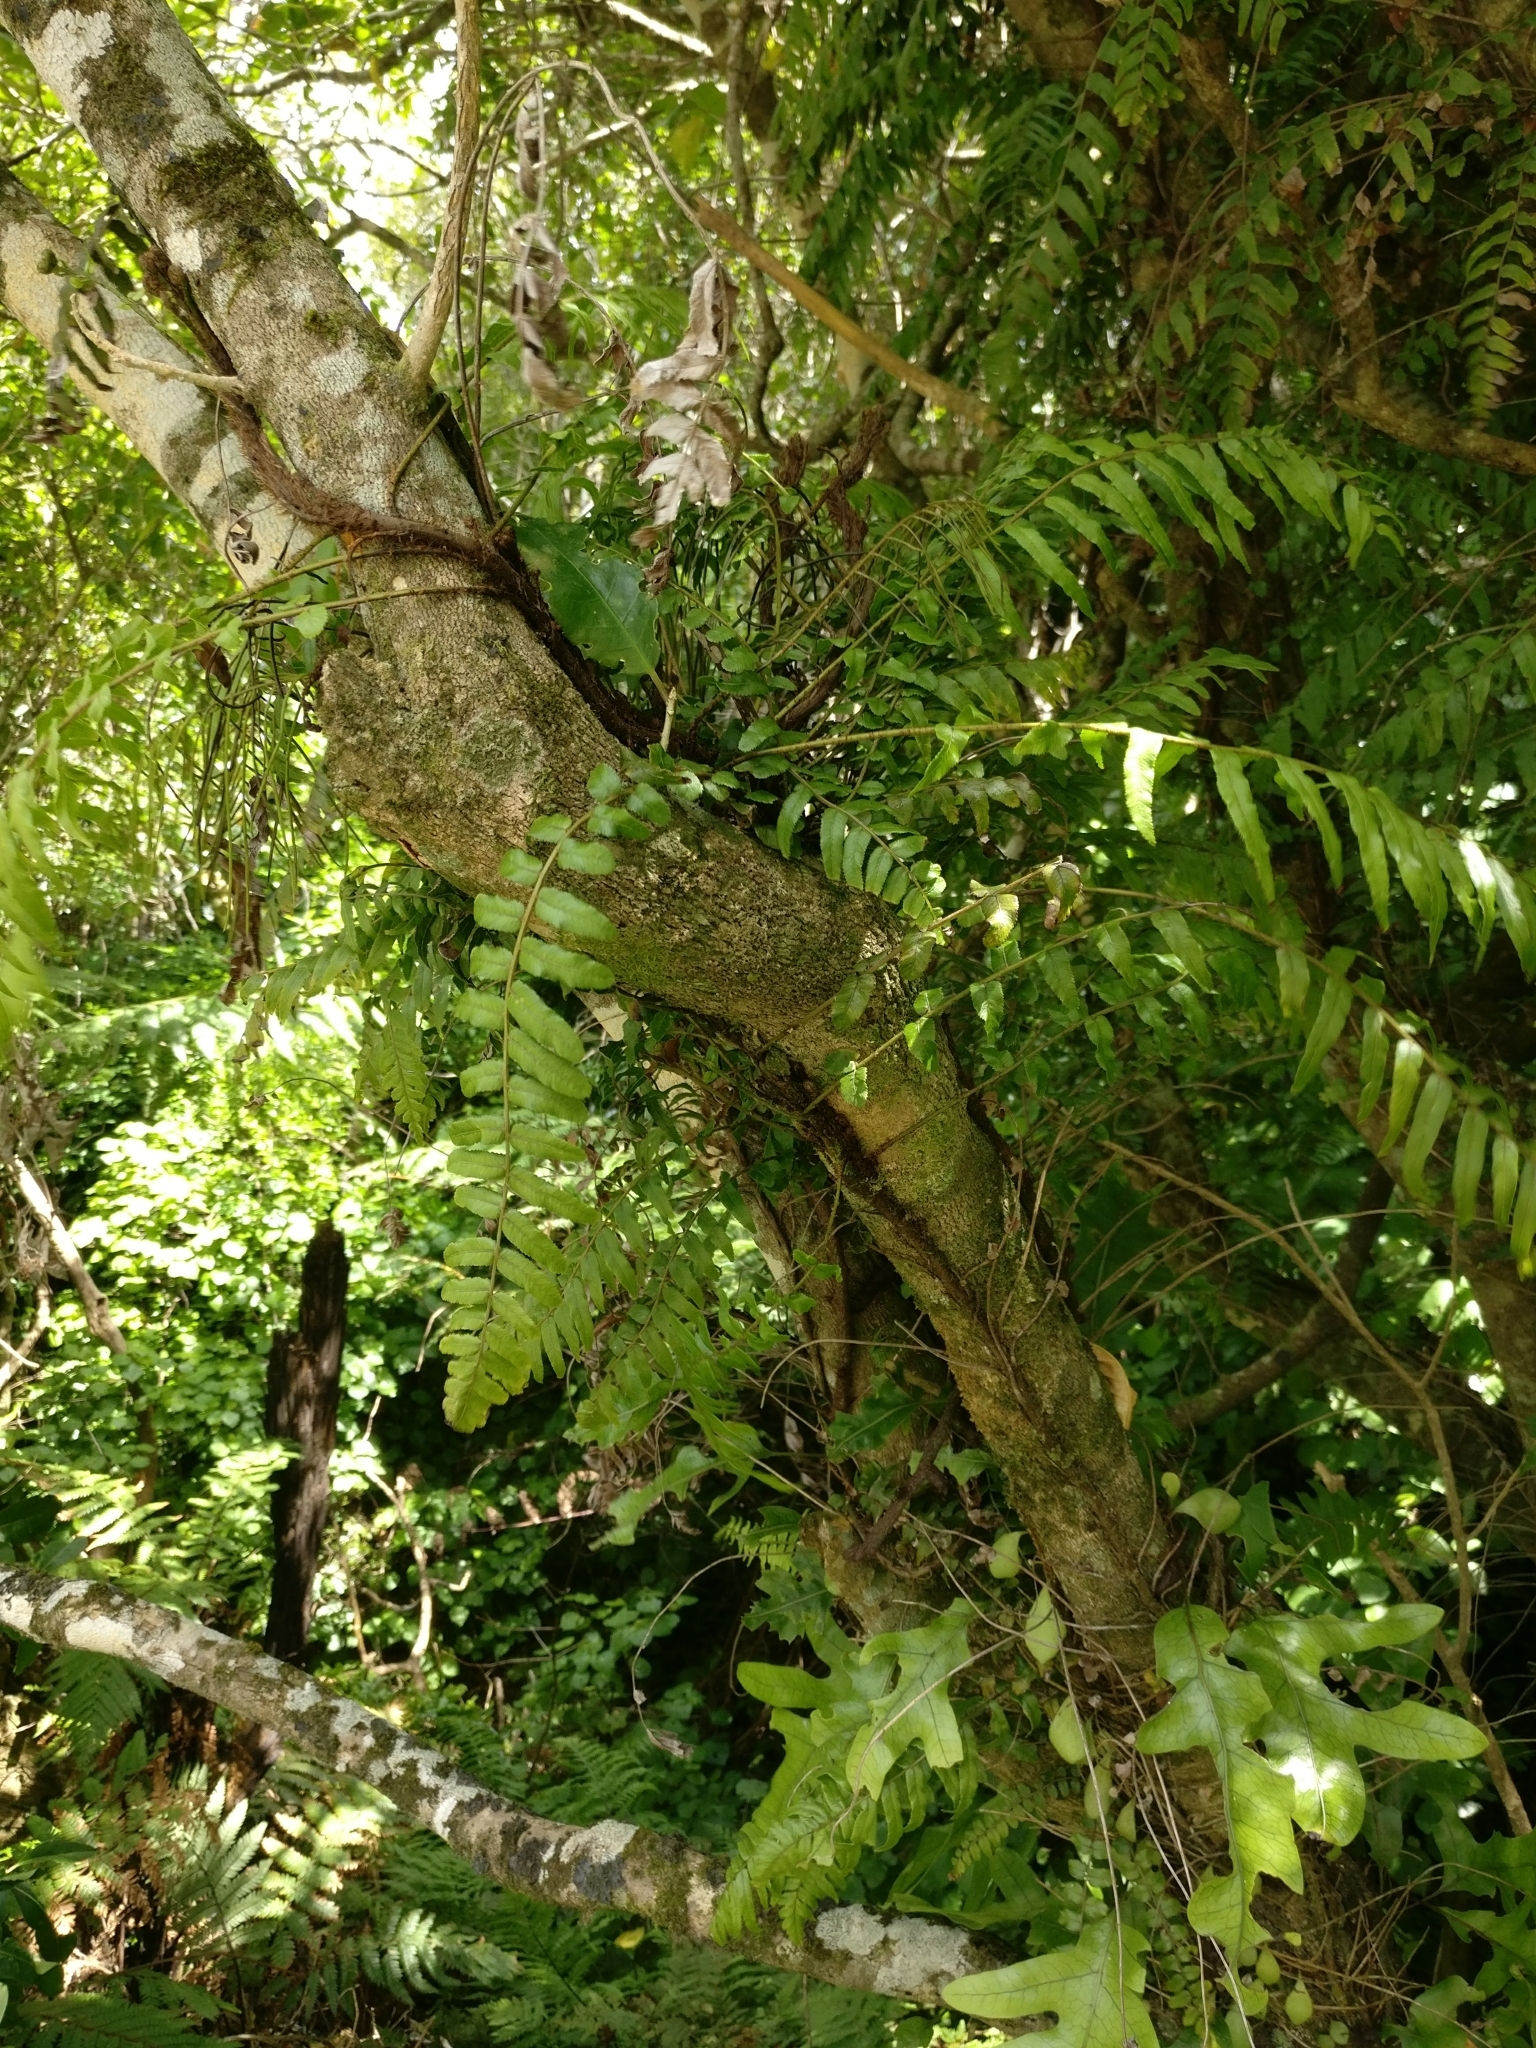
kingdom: Plantae
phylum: Tracheophyta
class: Polypodiopsida
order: Polypodiales
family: Blechnaceae
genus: Icarus
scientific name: Icarus filiformis
